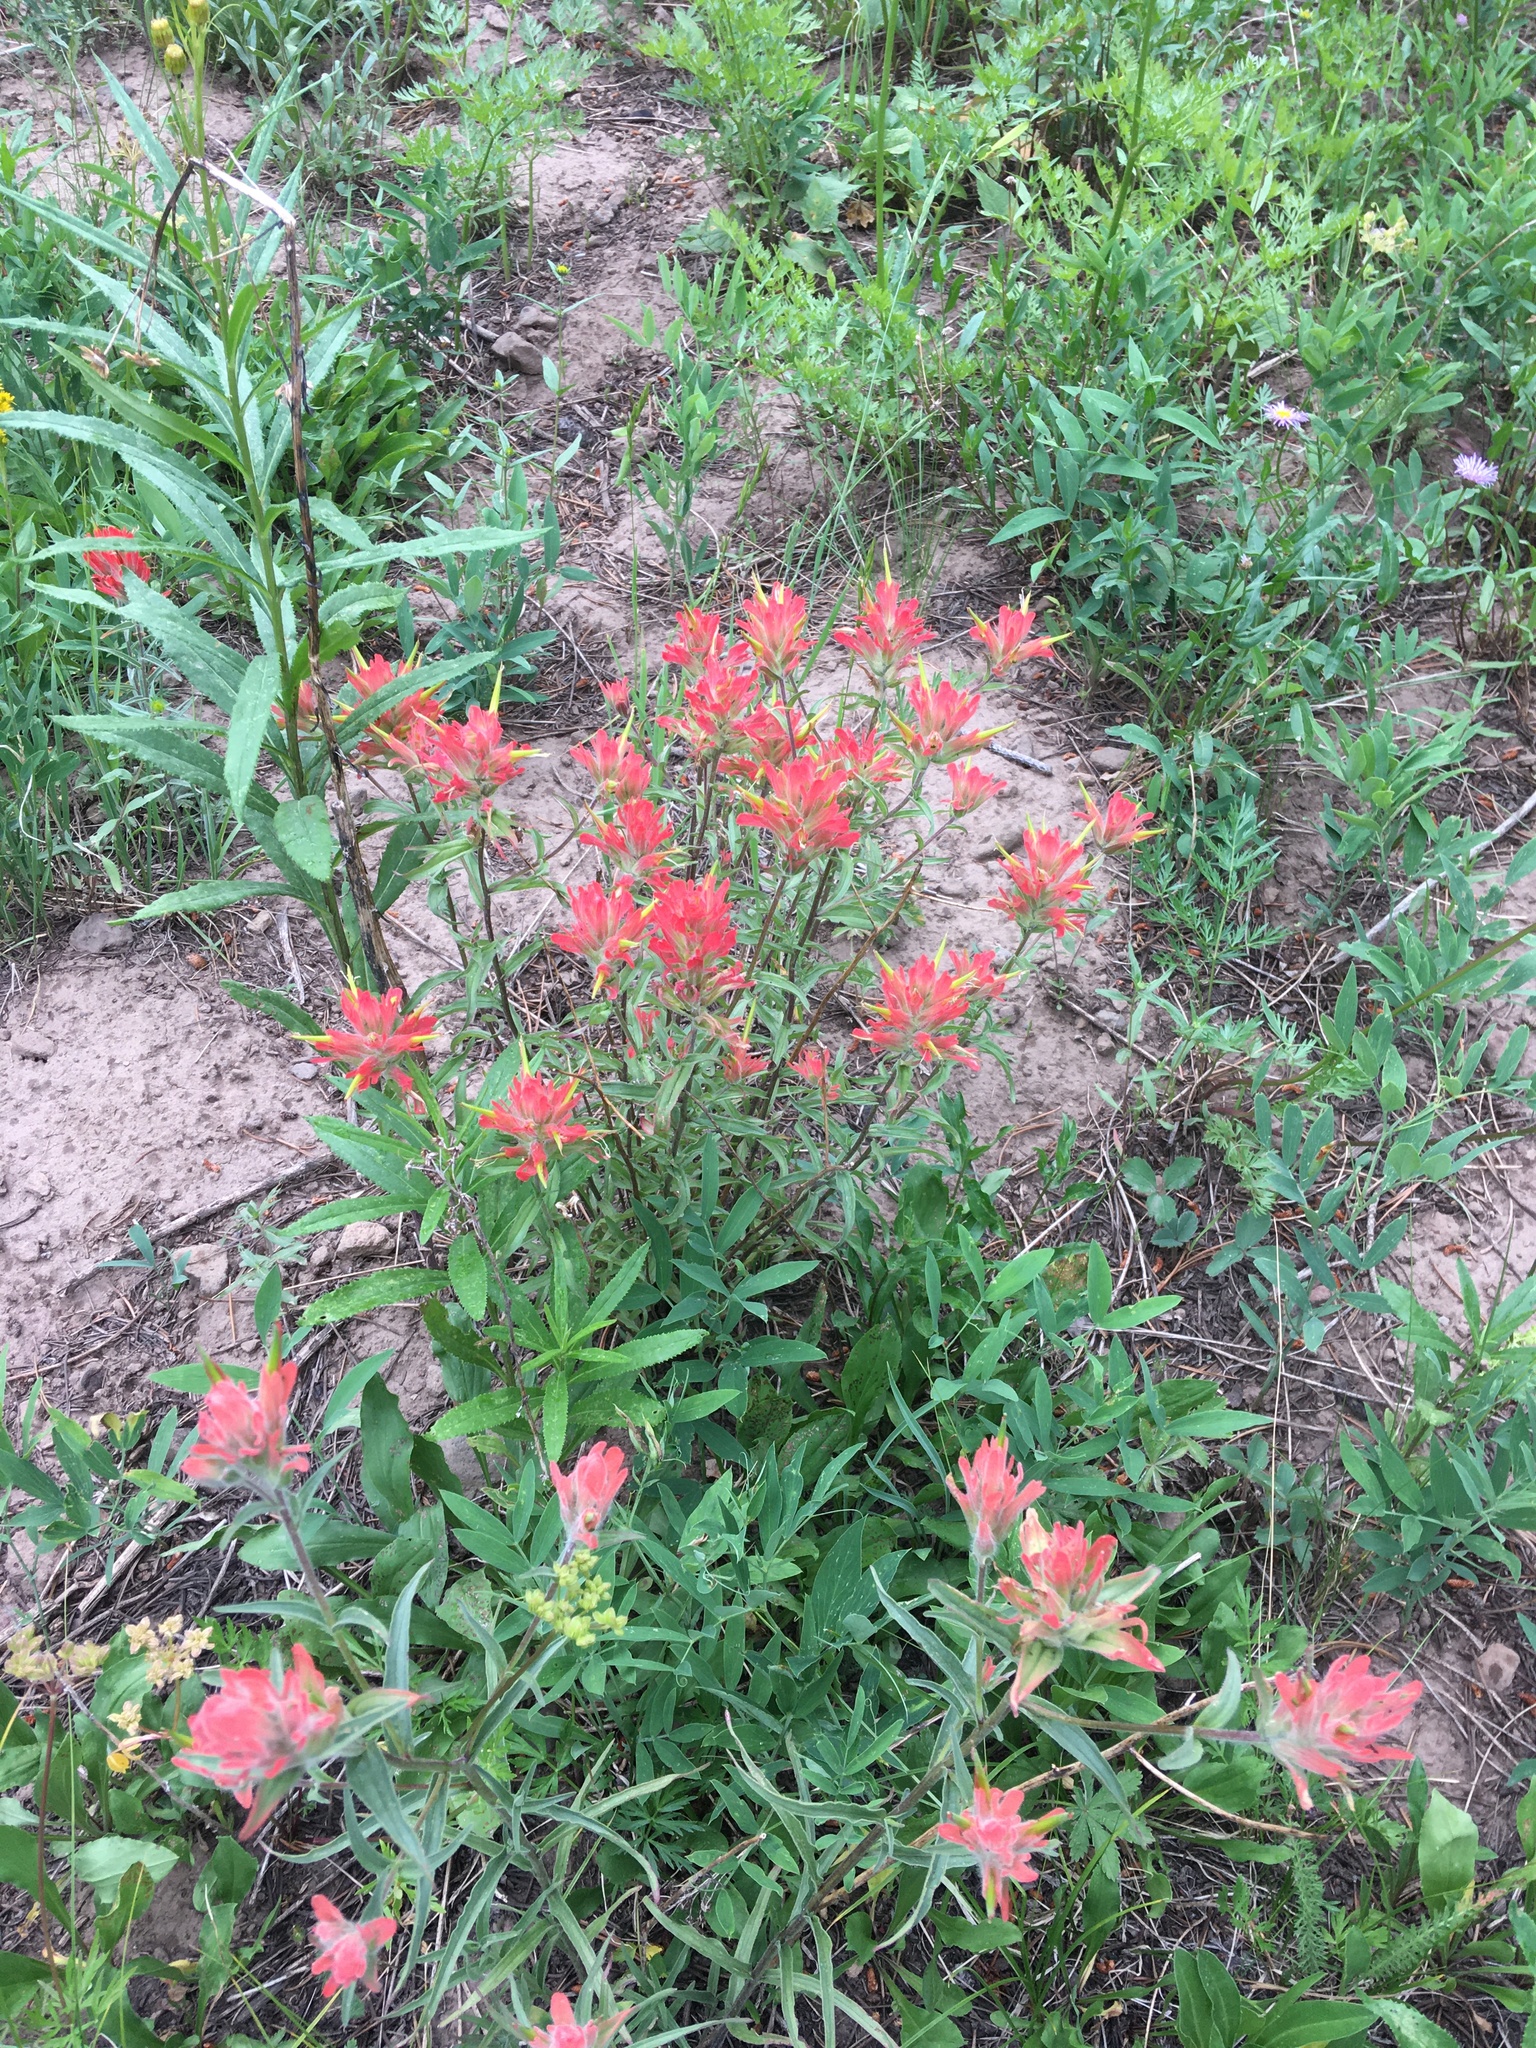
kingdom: Plantae
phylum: Tracheophyta
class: Magnoliopsida
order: Lamiales
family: Orobanchaceae
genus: Castilleja
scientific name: Castilleja miniata
